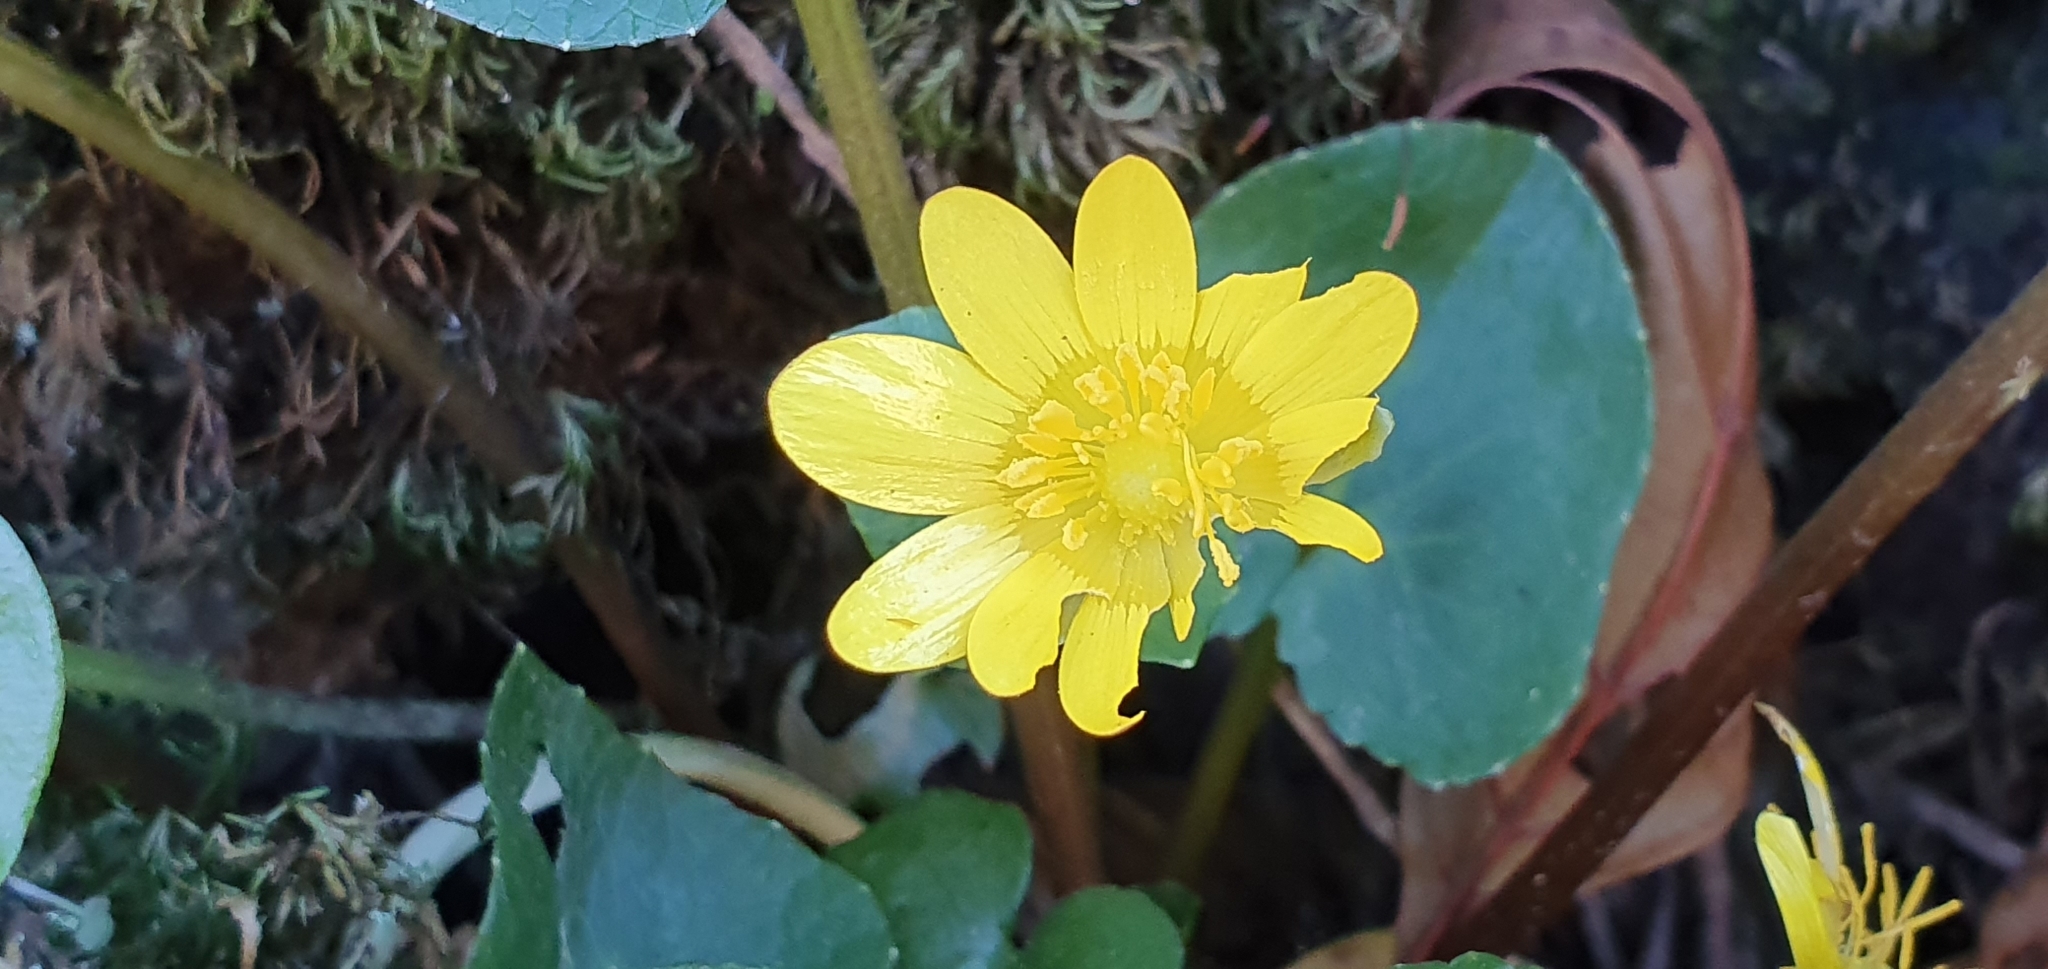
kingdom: Plantae
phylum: Tracheophyta
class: Magnoliopsida
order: Ranunculales
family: Ranunculaceae
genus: Ficaria
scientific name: Ficaria verna
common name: Lesser celandine
